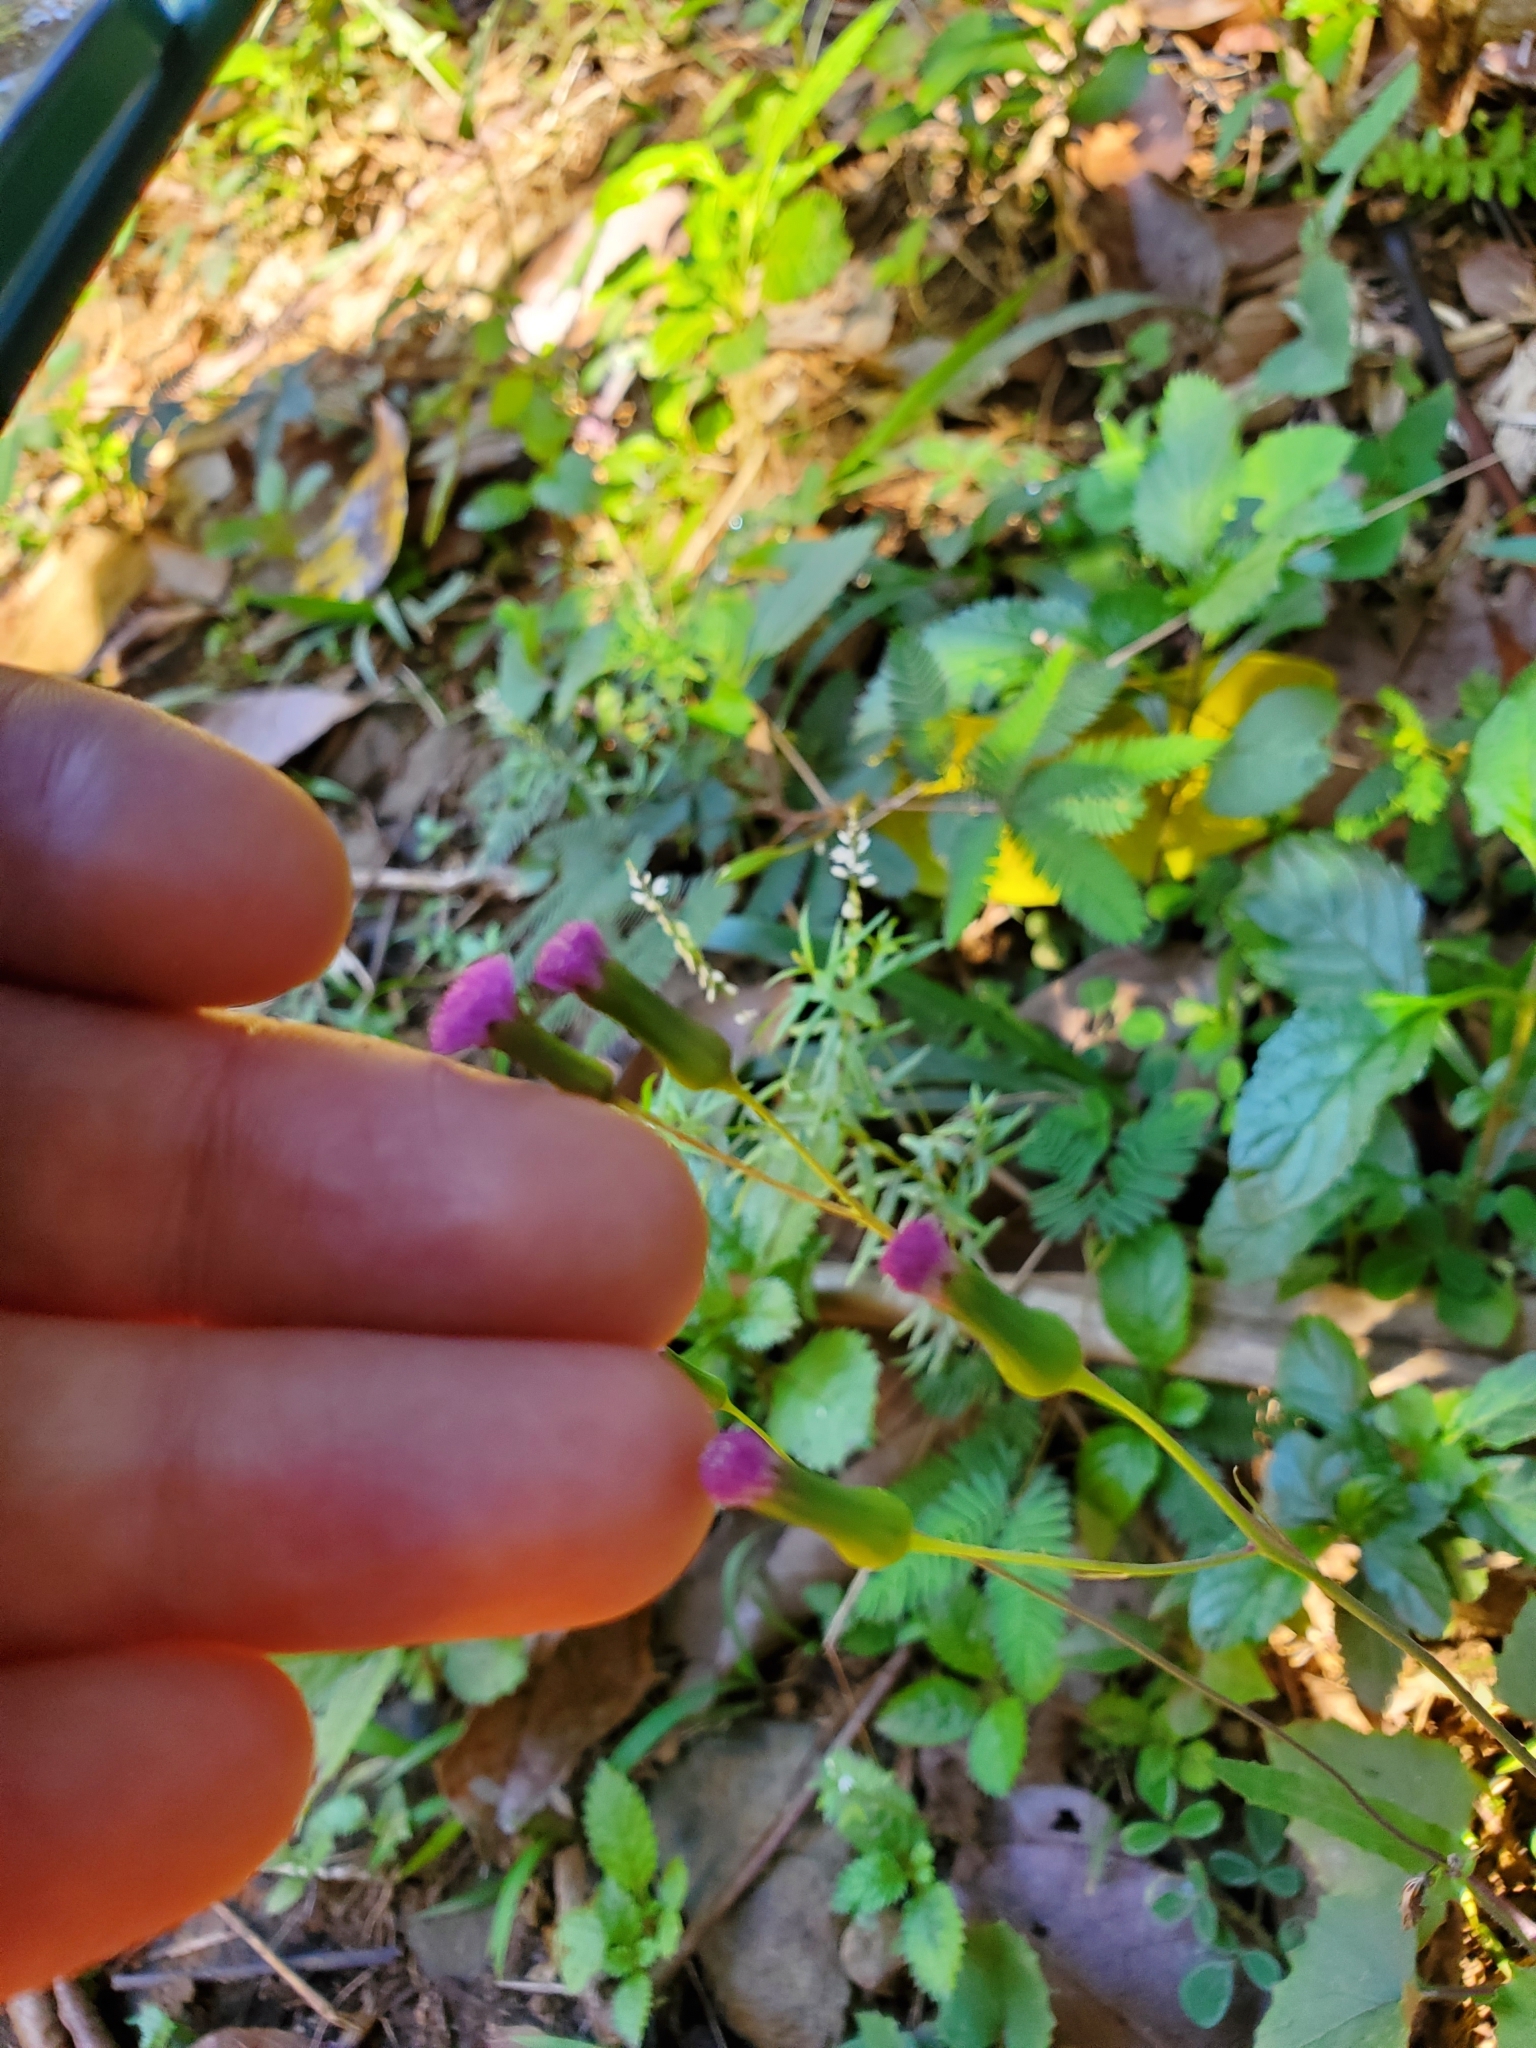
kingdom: Plantae
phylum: Tracheophyta
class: Magnoliopsida
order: Asterales
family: Asteraceae
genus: Emilia
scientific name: Emilia sonchifolia
